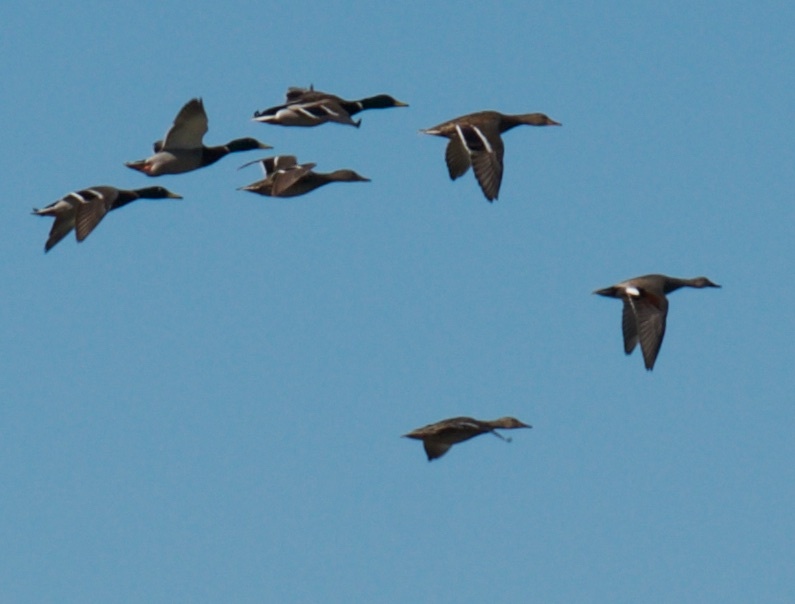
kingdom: Animalia
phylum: Chordata
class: Aves
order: Anseriformes
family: Anatidae
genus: Anas
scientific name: Anas platyrhynchos
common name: Mallard
